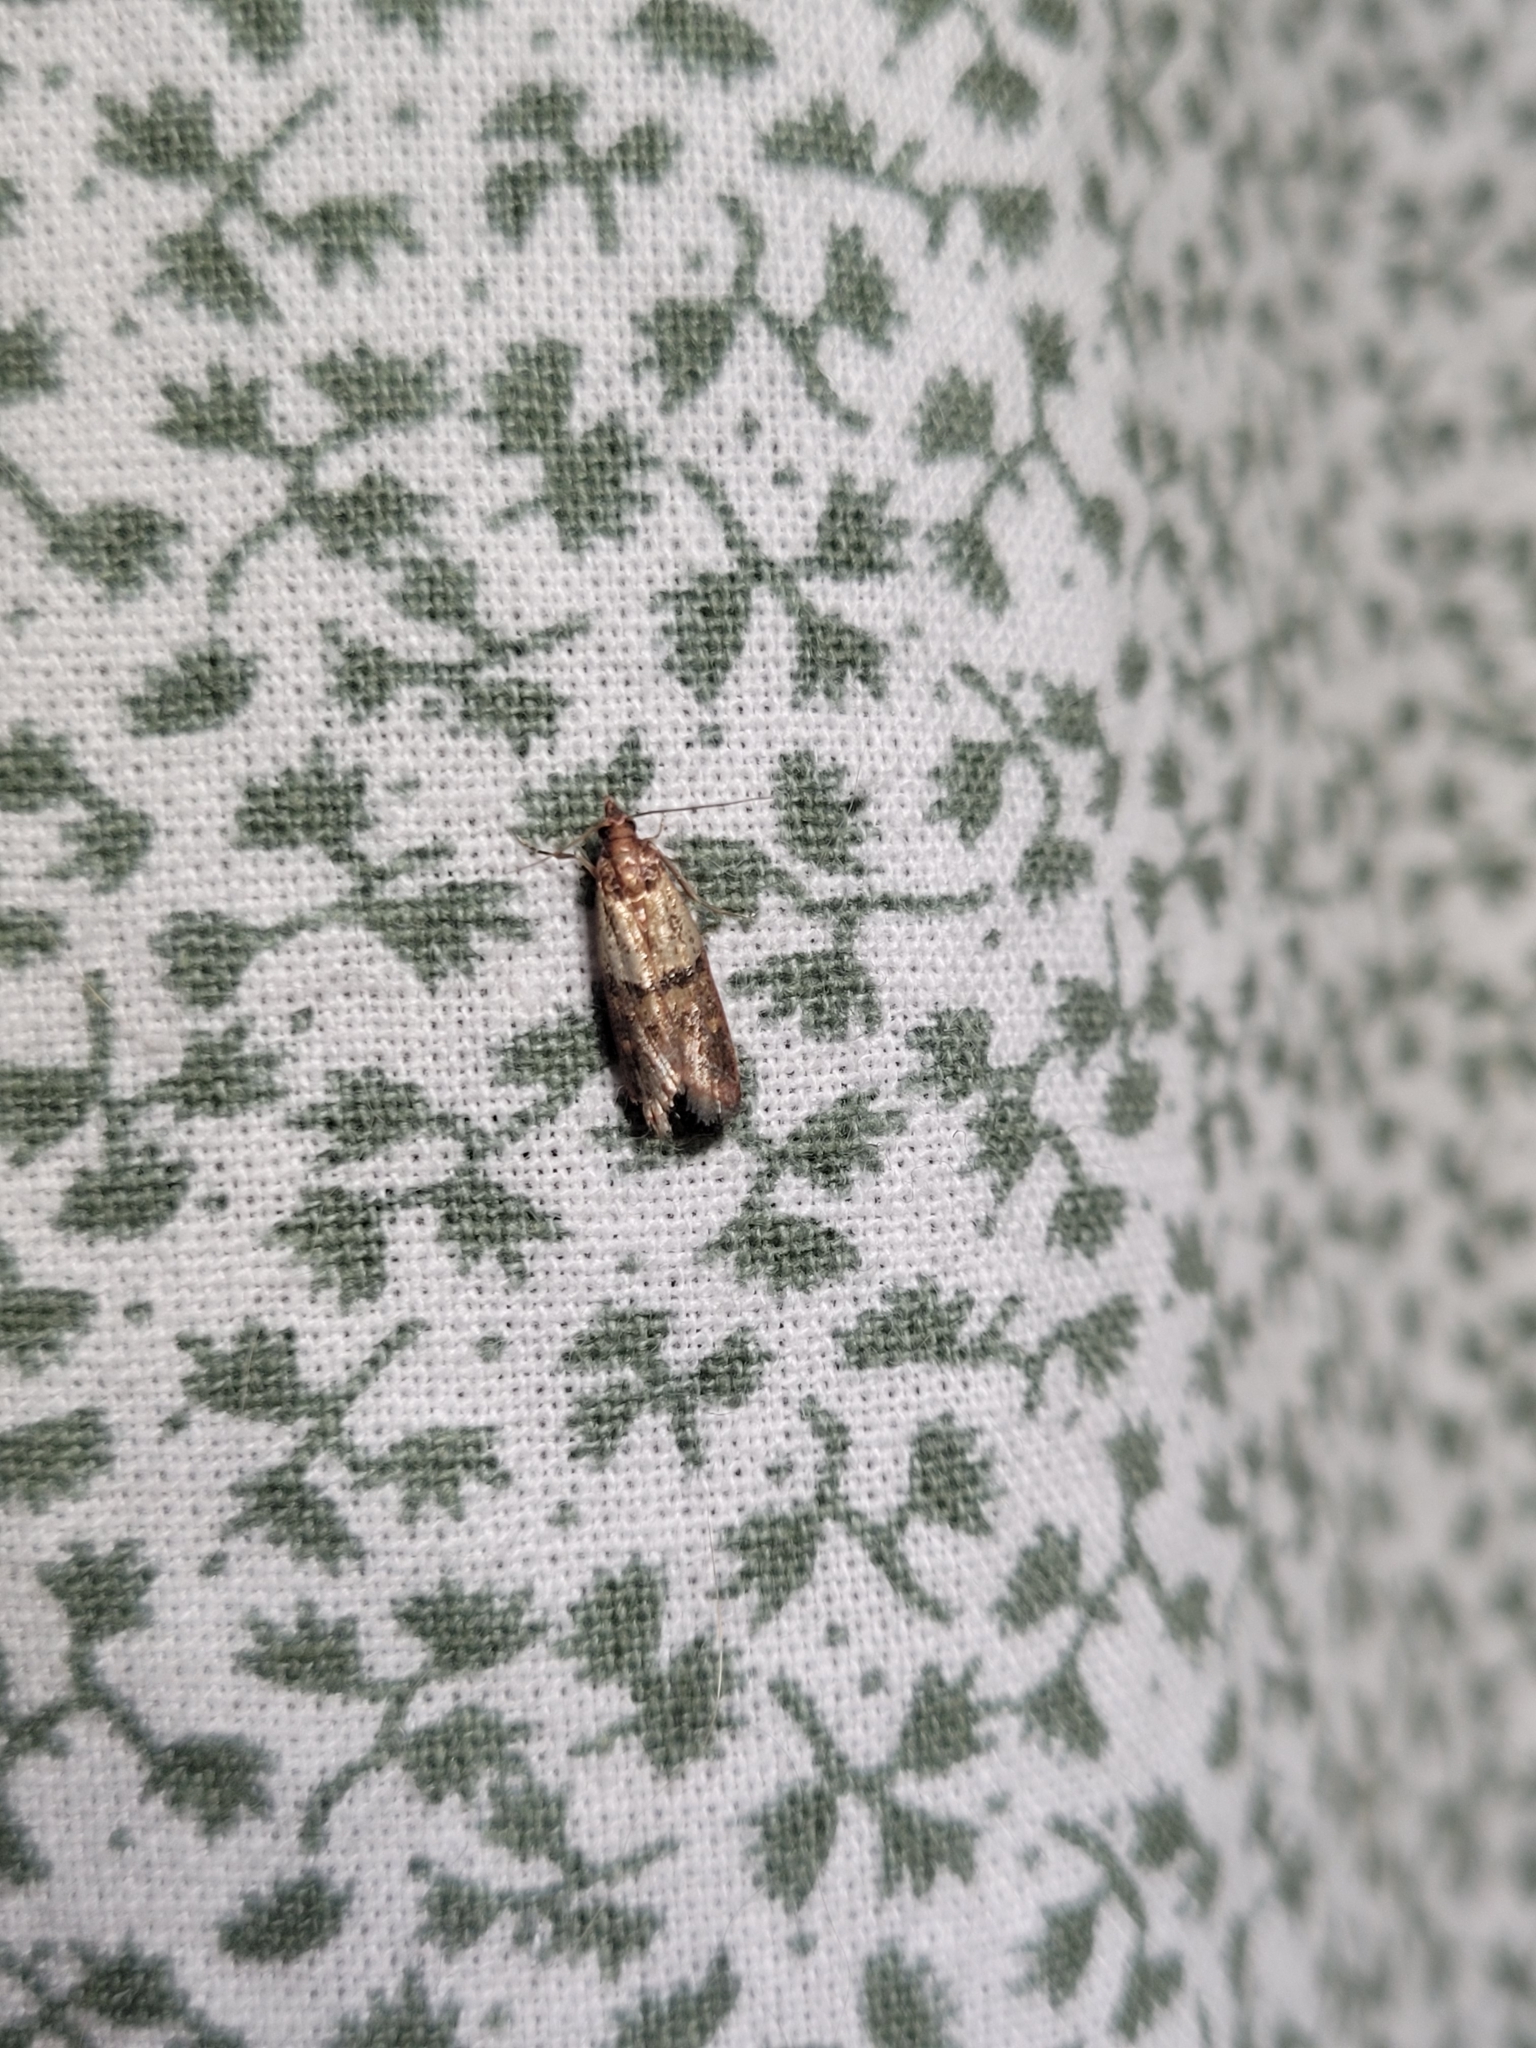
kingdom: Animalia
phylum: Arthropoda
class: Insecta
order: Lepidoptera
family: Pyralidae
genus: Plodia
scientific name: Plodia interpunctella
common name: Indian meal moth
